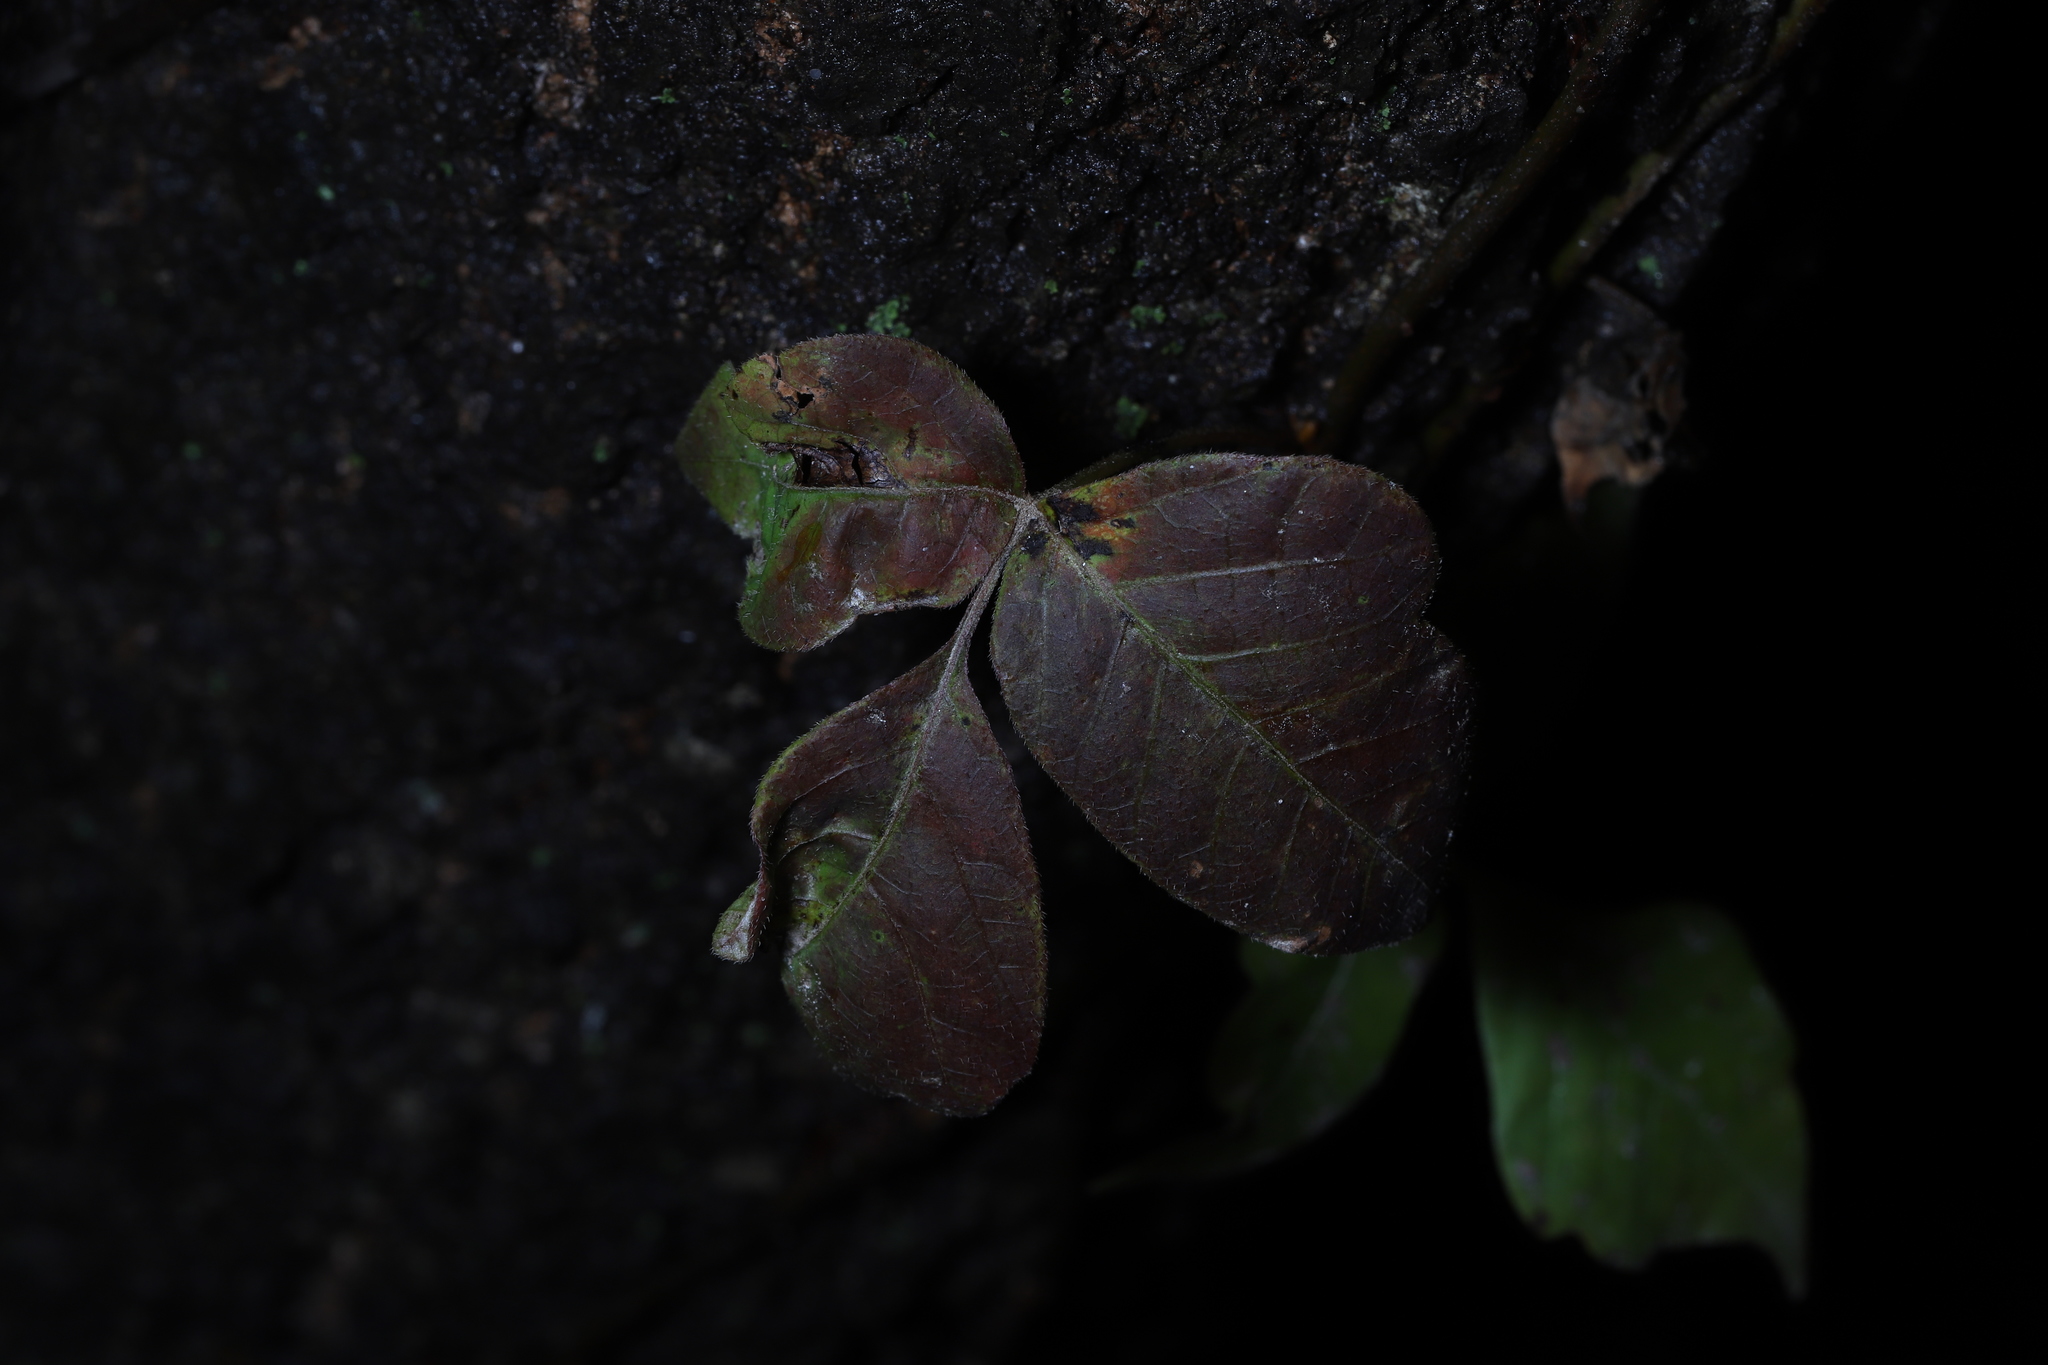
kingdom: Plantae
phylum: Tracheophyta
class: Magnoliopsida
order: Sapindales
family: Anacardiaceae
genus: Toxicodendron
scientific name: Toxicodendron radicans
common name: Poison ivy
